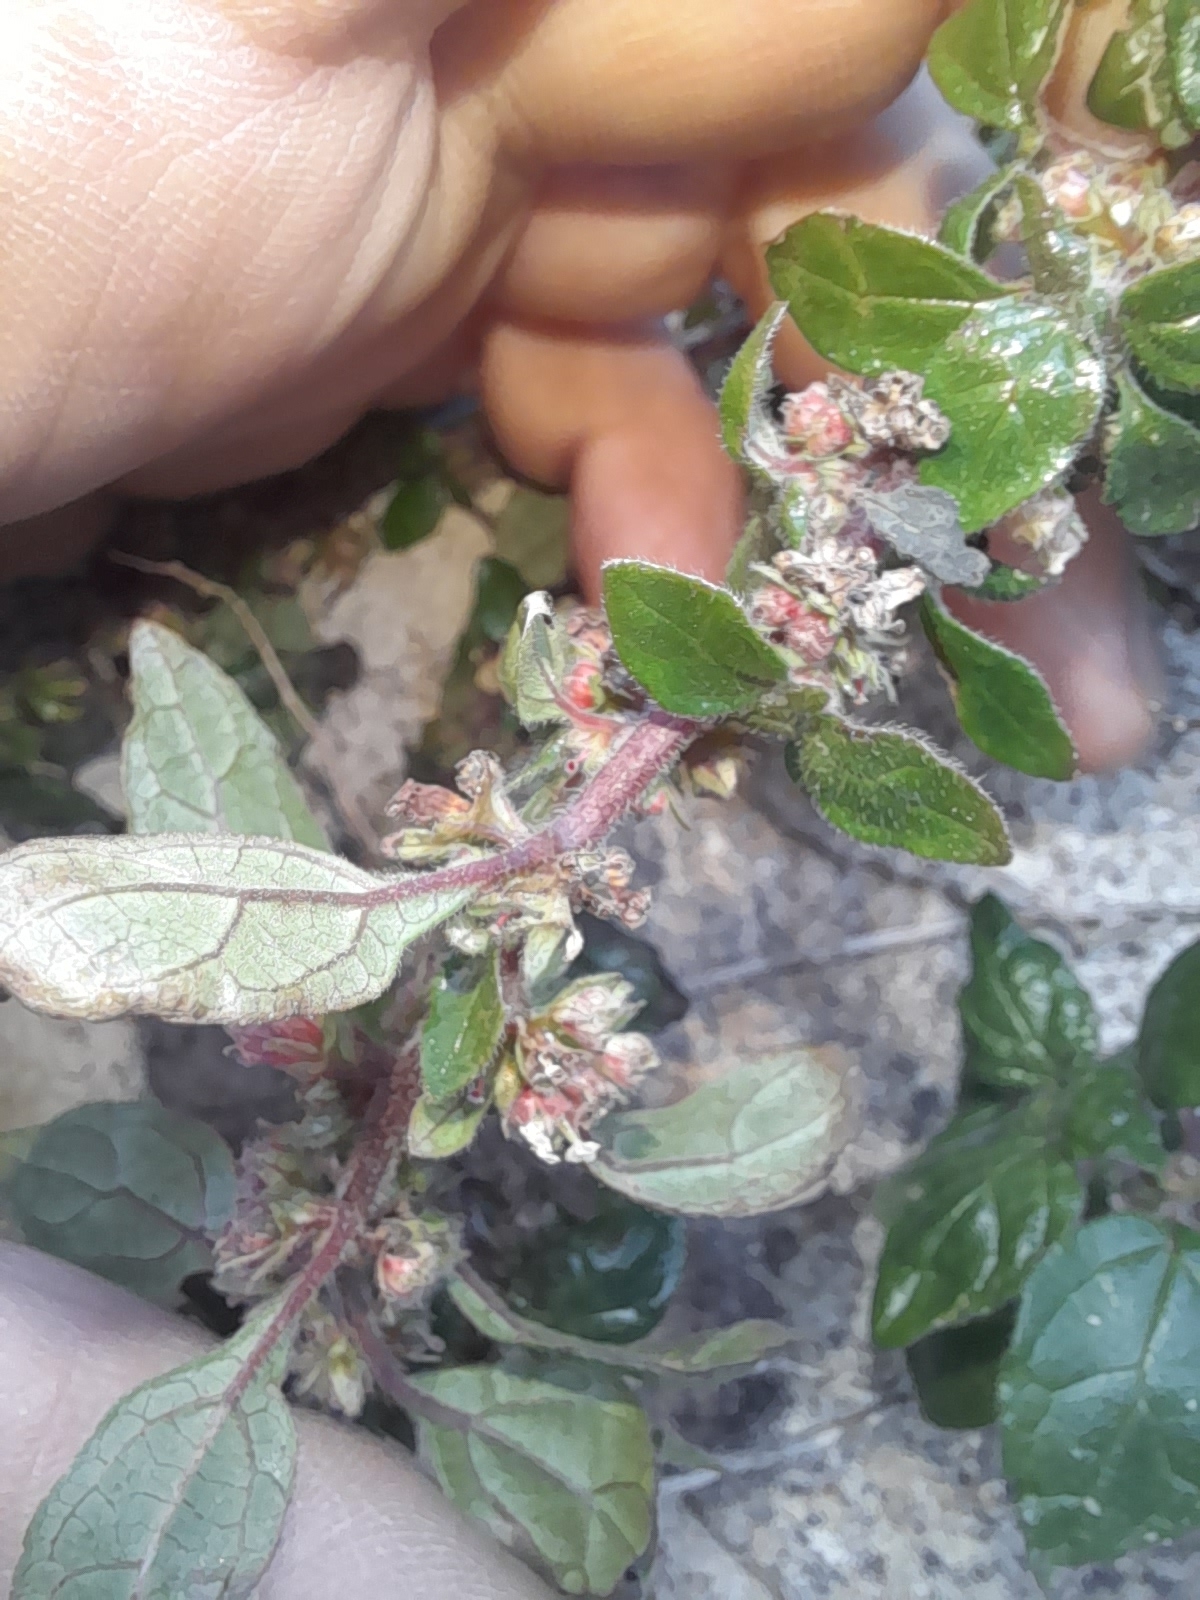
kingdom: Plantae
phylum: Tracheophyta
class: Magnoliopsida
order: Rosales
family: Urticaceae
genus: Parietaria
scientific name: Parietaria judaica
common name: Pellitory-of-the-wall
